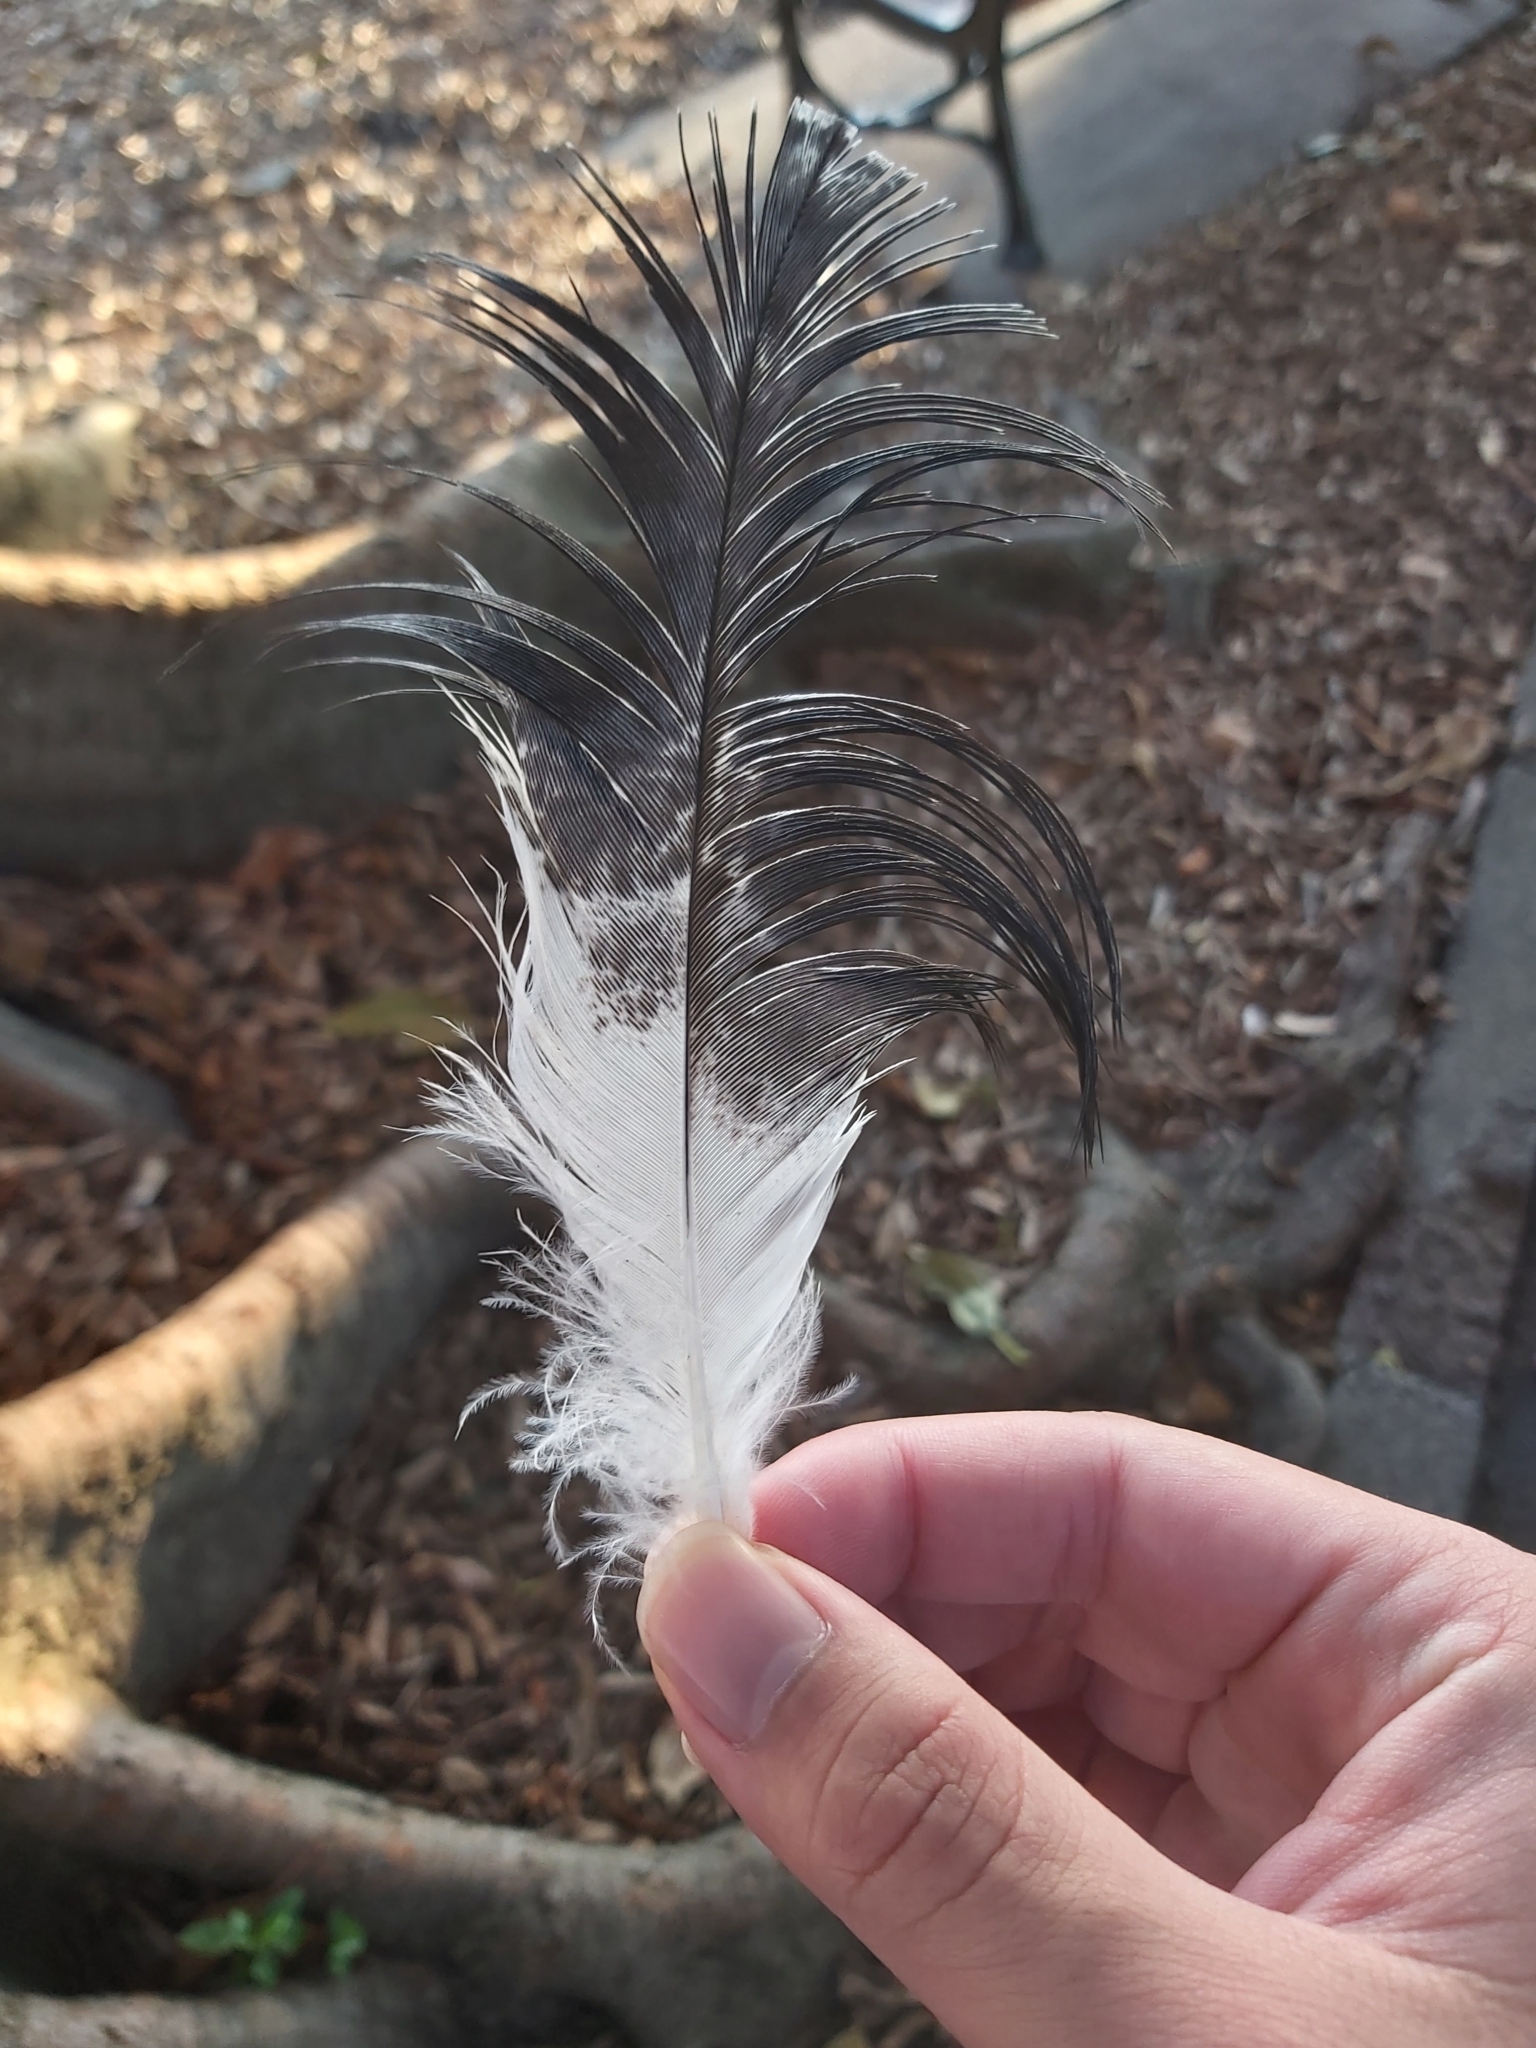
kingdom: Animalia
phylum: Chordata
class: Aves
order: Pelecaniformes
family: Threskiornithidae
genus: Threskiornis
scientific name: Threskiornis molucca
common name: Australian white ibis
